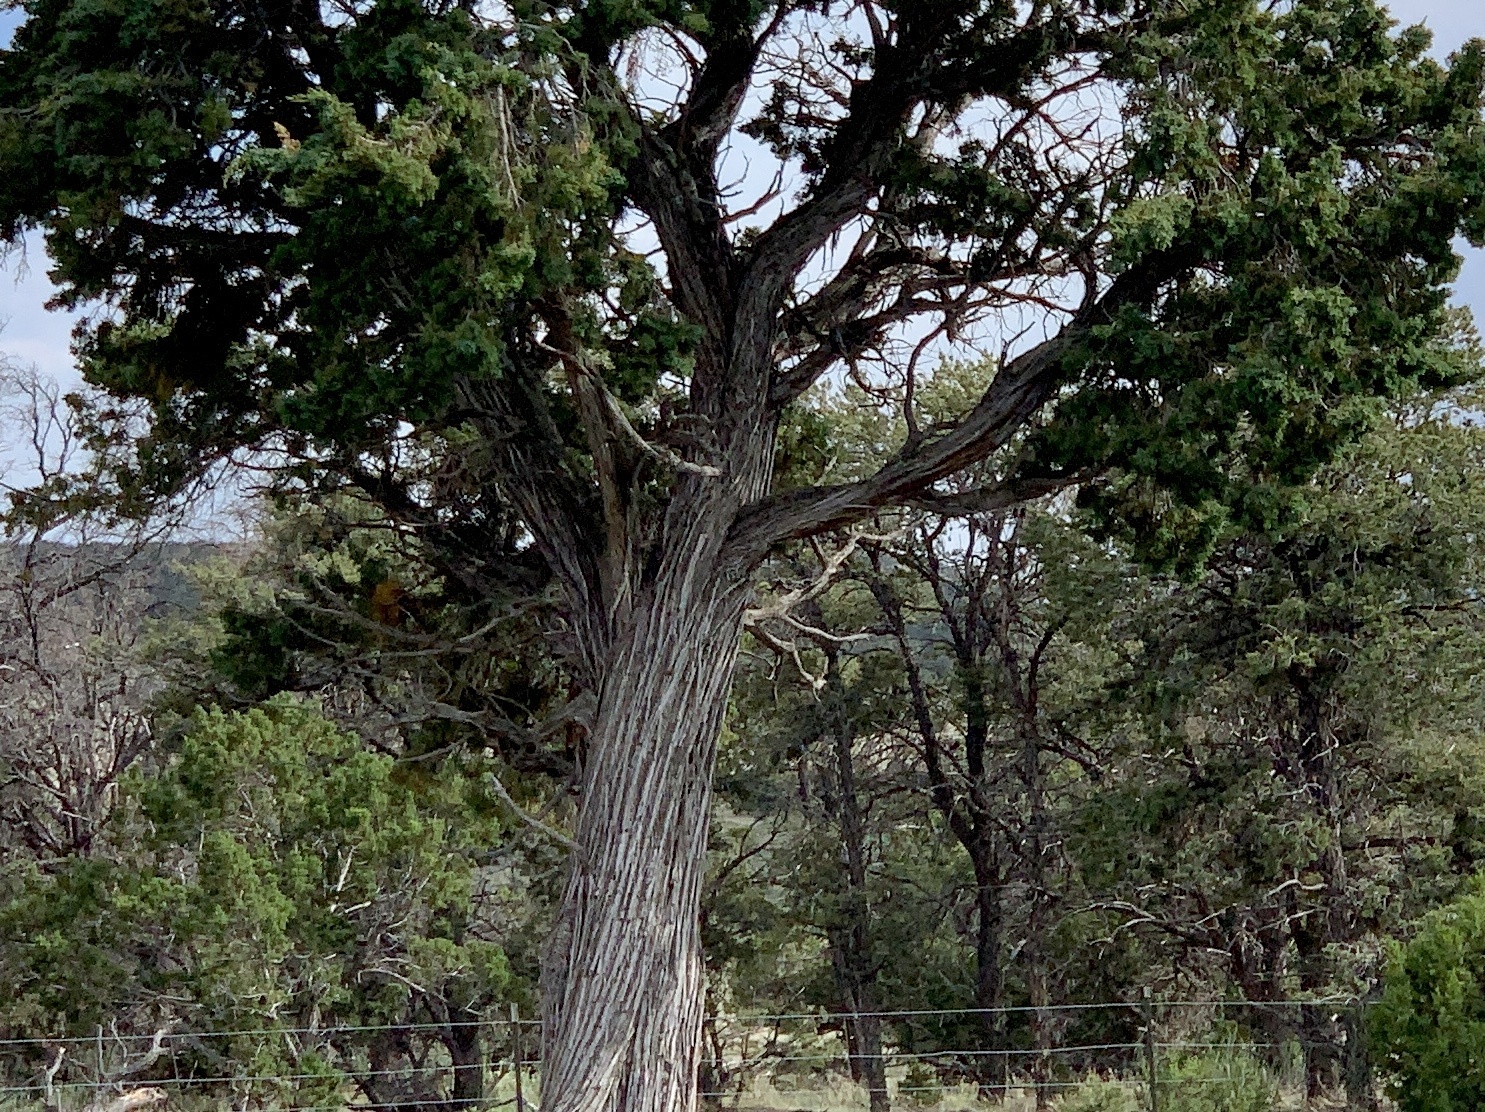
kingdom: Plantae
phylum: Tracheophyta
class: Pinopsida
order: Pinales
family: Cupressaceae
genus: Juniperus
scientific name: Juniperus monosperma
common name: One-seed juniper
